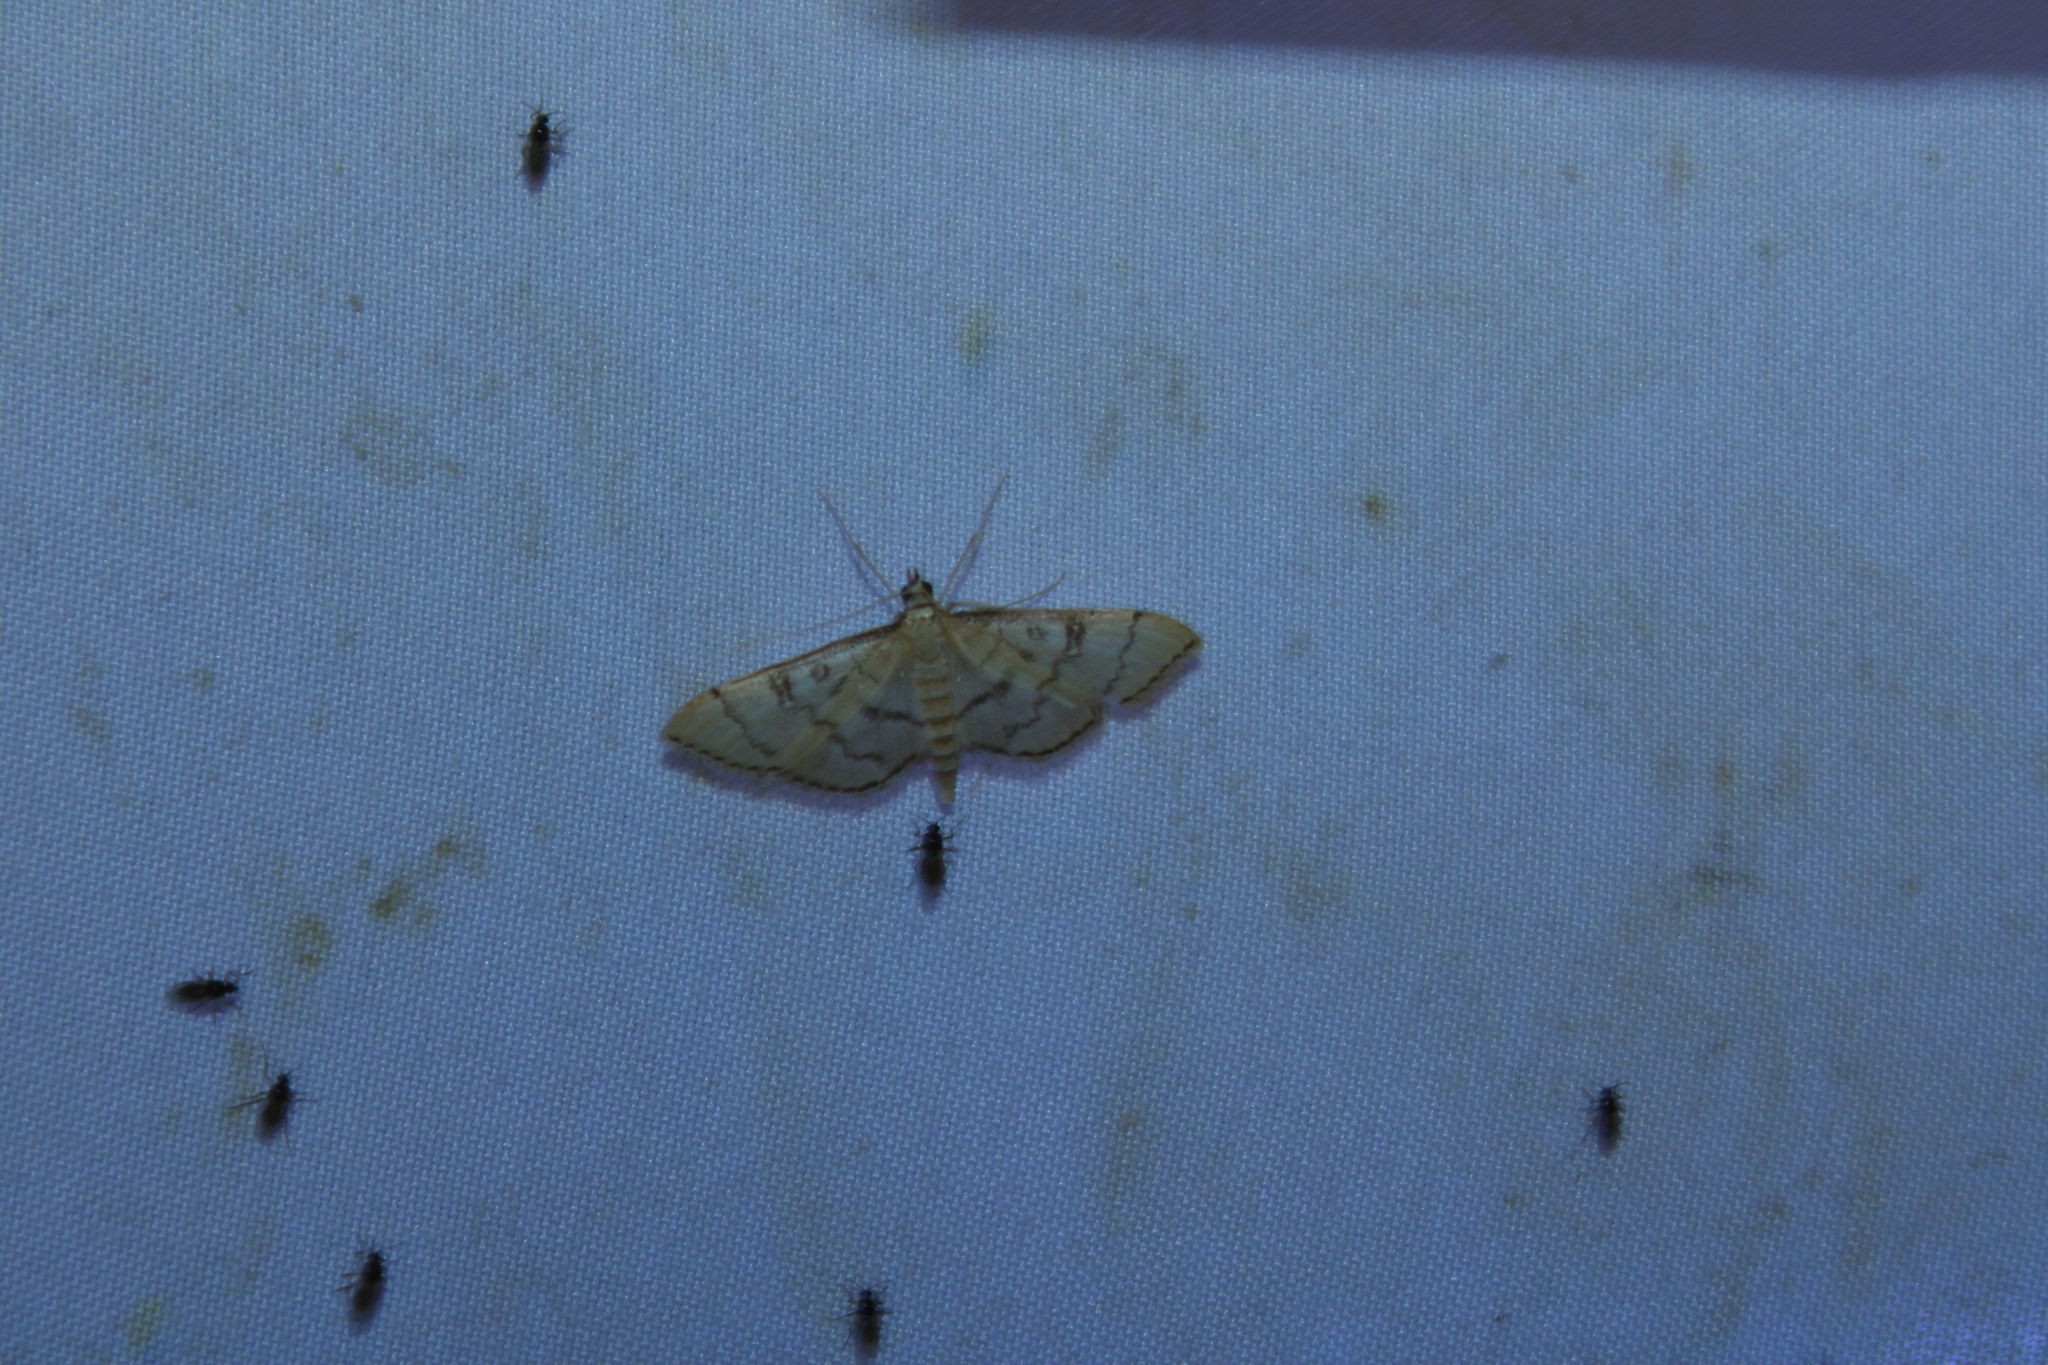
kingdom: Animalia
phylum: Arthropoda
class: Insecta
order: Lepidoptera
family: Crambidae
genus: Lamprosema
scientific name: Lamprosema Blepharomastix ranalis
